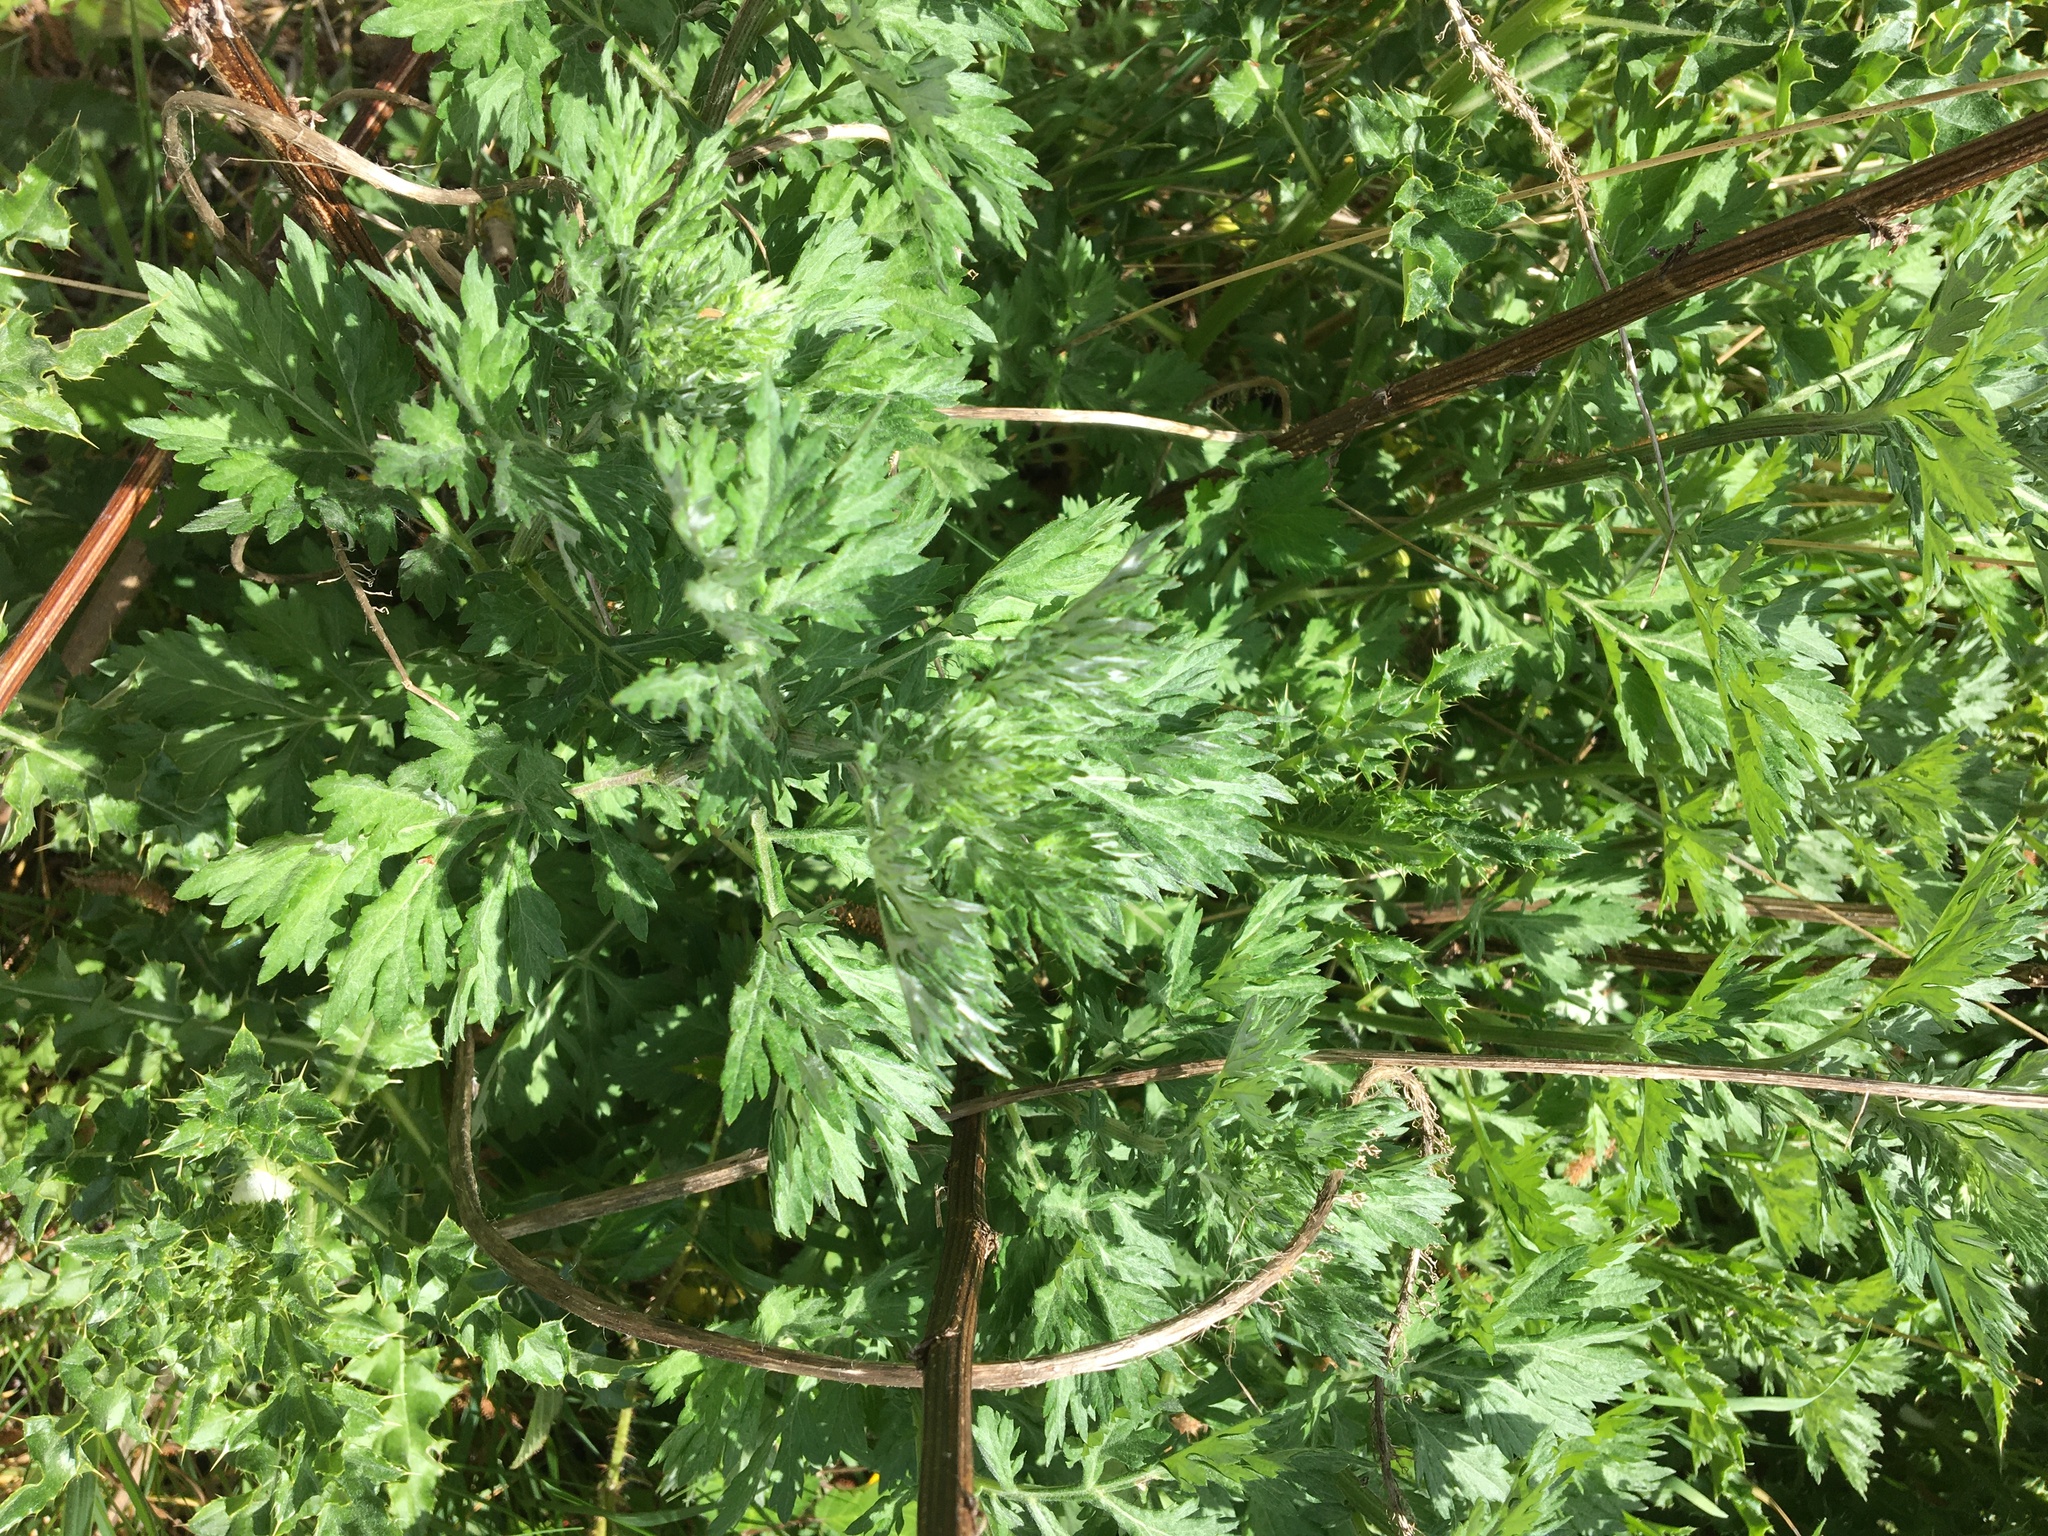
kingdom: Plantae
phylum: Tracheophyta
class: Magnoliopsida
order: Asterales
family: Asteraceae
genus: Artemisia
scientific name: Artemisia vulgaris
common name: Mugwort
